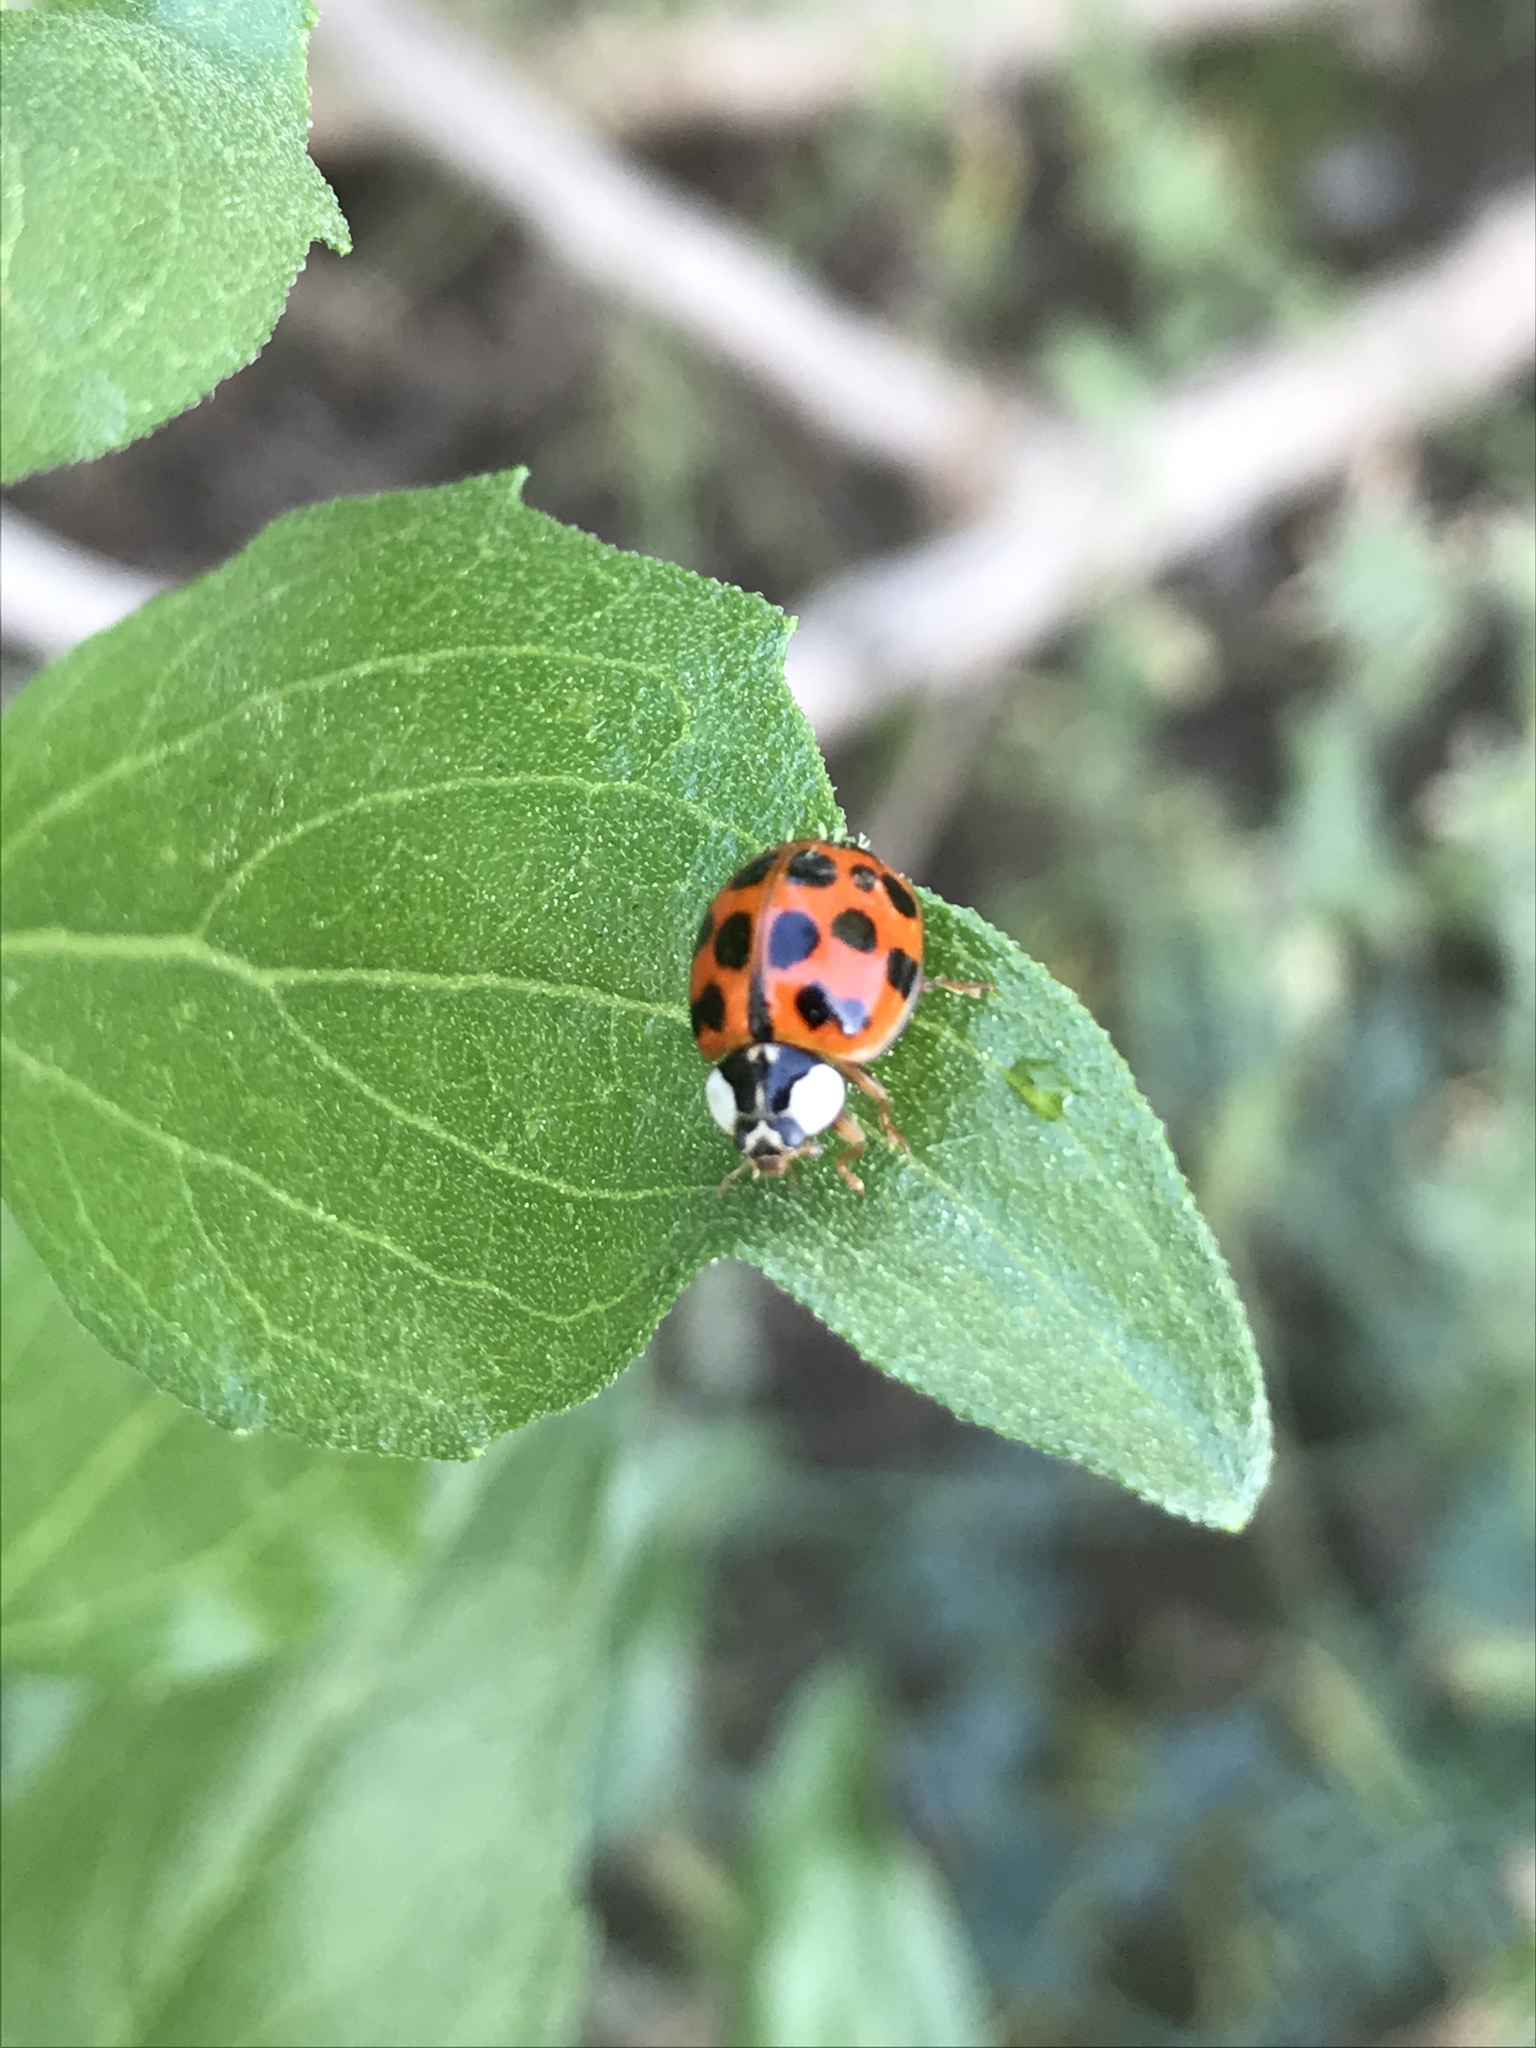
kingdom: Animalia
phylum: Arthropoda
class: Insecta
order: Coleoptera
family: Coccinellidae
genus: Harmonia
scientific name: Harmonia axyridis
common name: Harlequin ladybird
